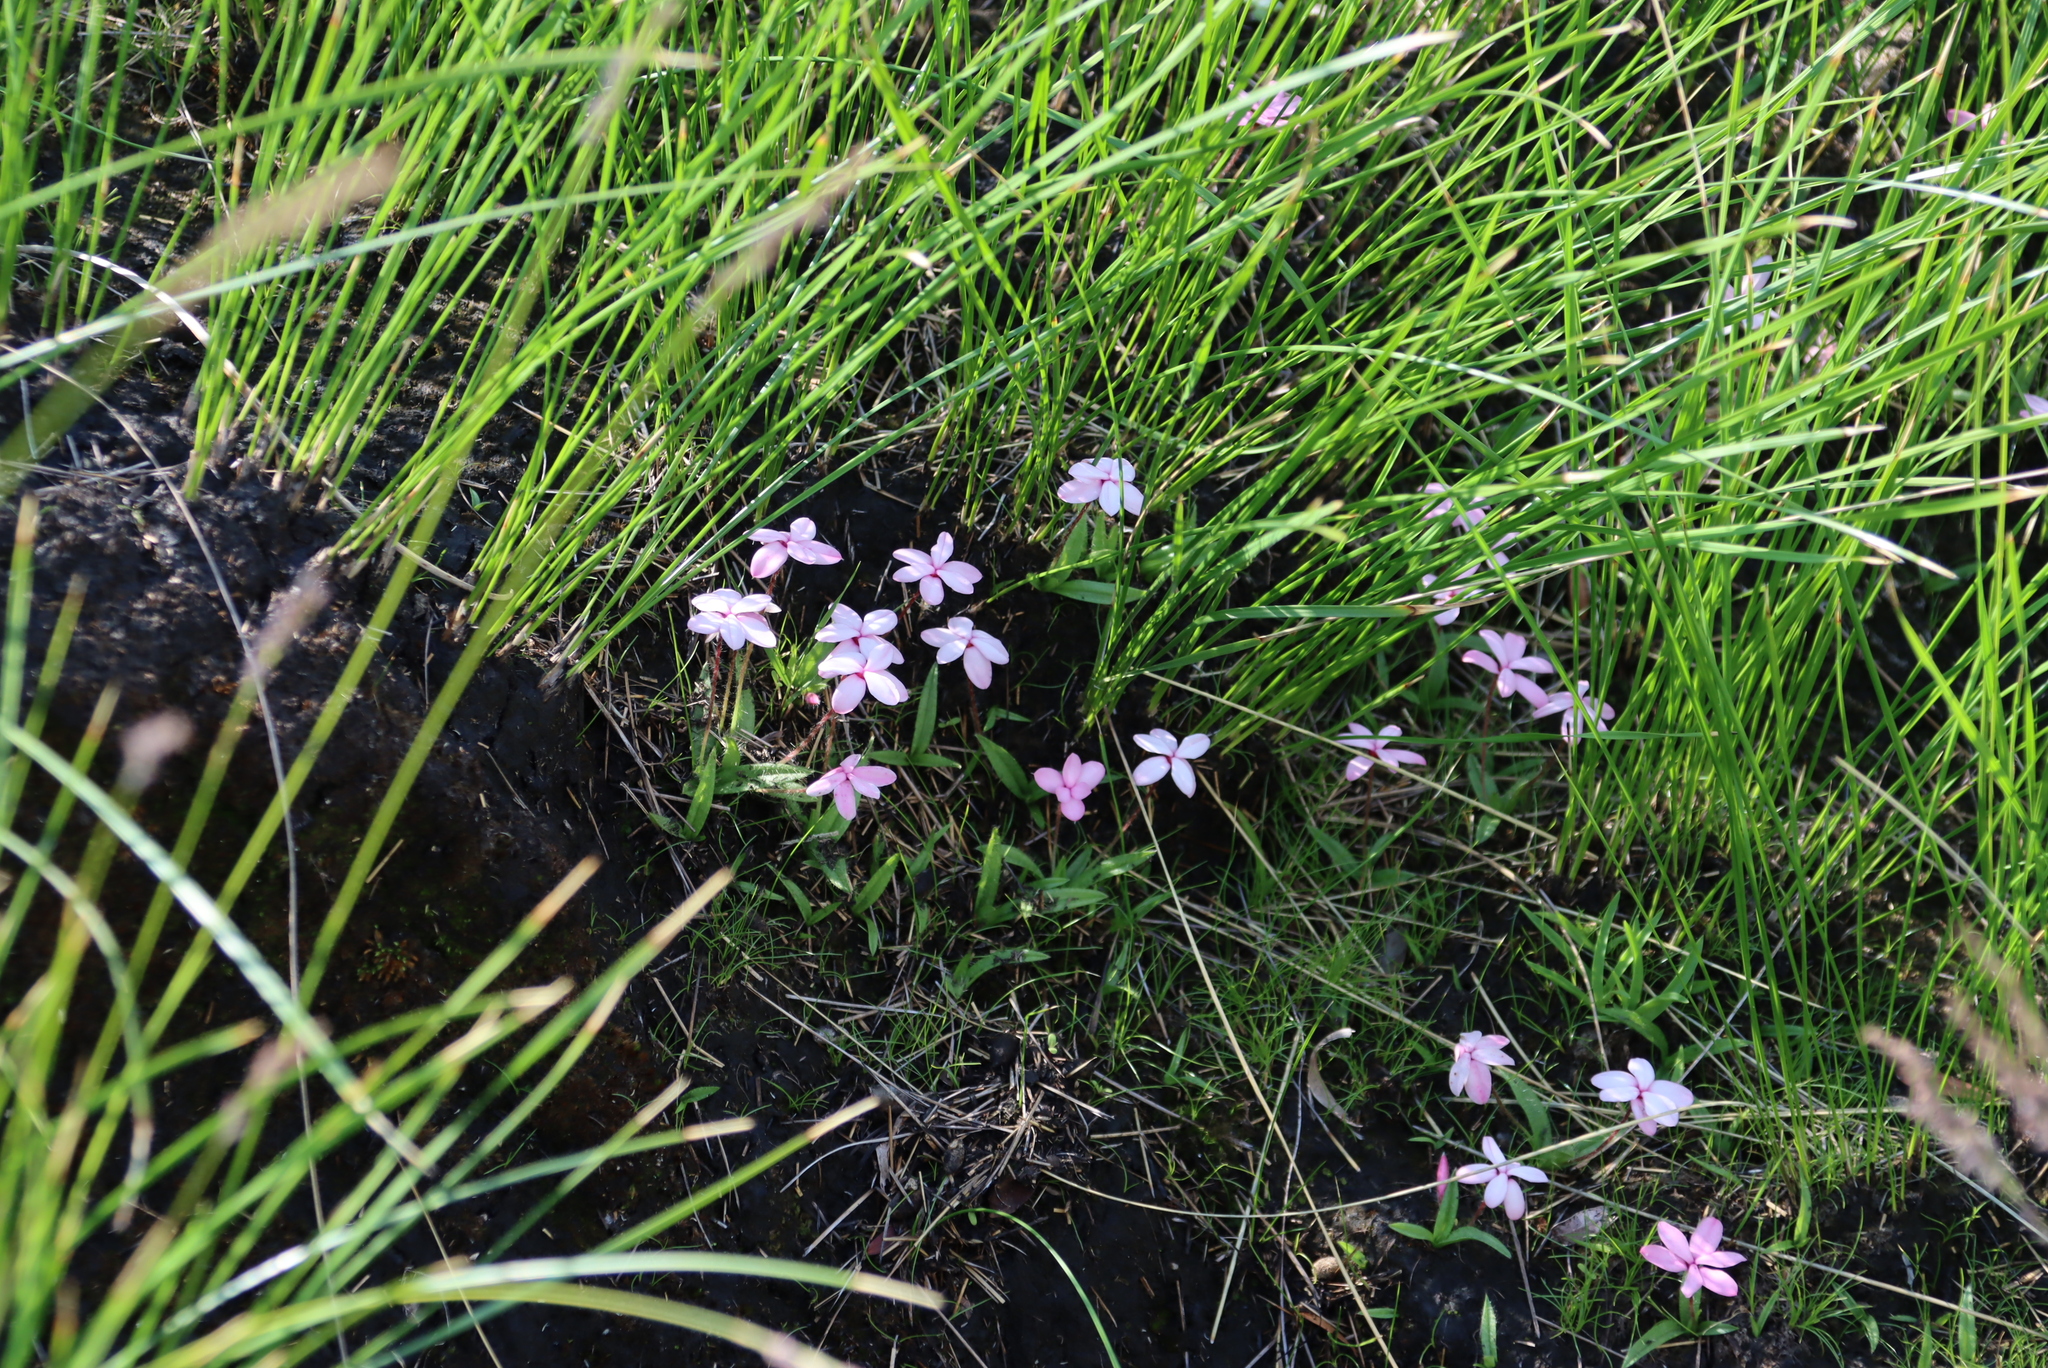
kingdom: Plantae
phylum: Tracheophyta
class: Liliopsida
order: Asparagales
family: Hypoxidaceae
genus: Hypoxis
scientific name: Hypoxis baurii
